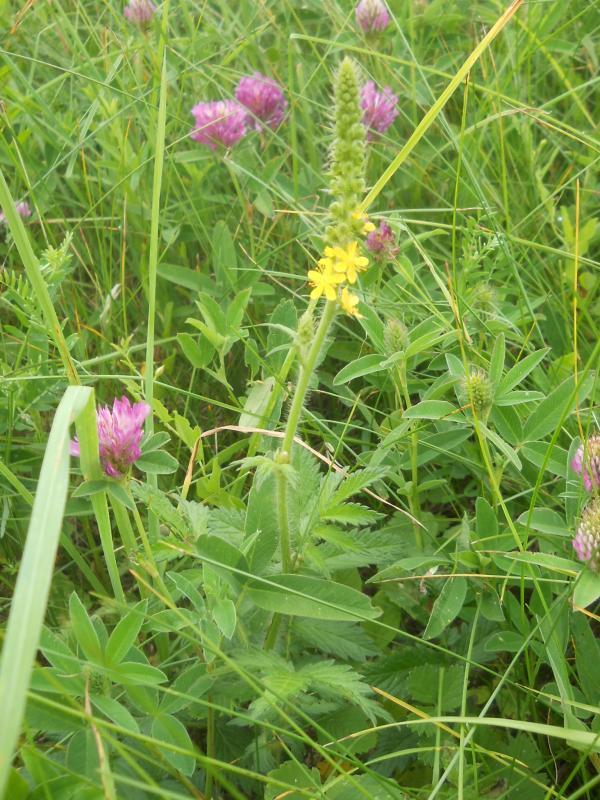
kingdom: Plantae
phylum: Tracheophyta
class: Magnoliopsida
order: Rosales
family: Rosaceae
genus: Agrimonia
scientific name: Agrimonia eupatoria
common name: Agrimony
